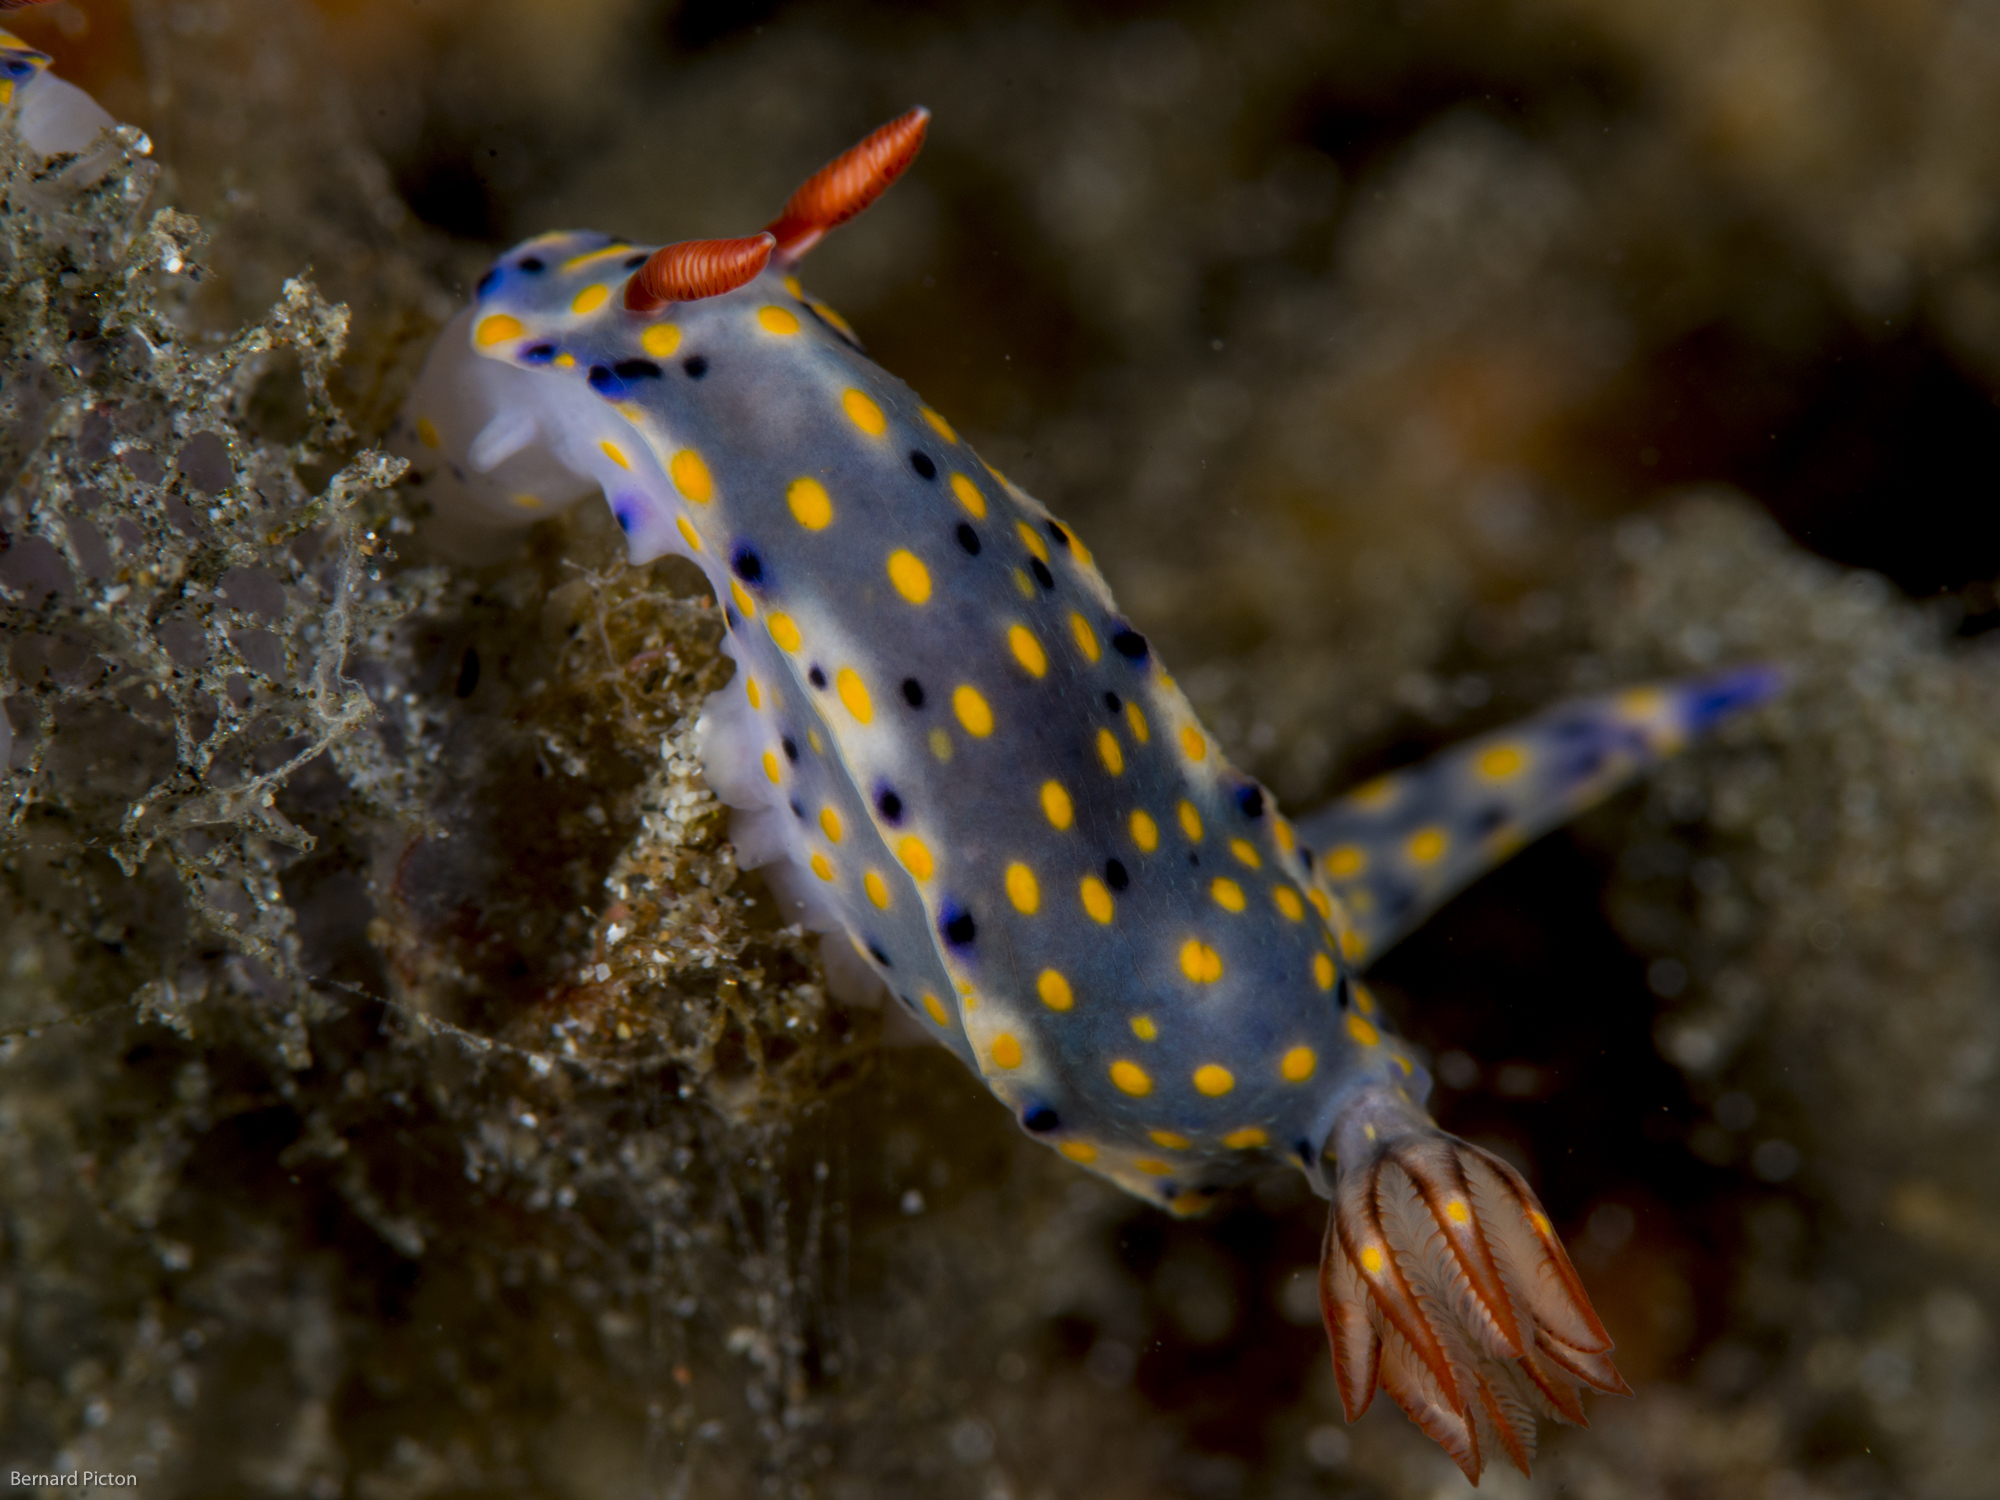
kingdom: Animalia
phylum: Mollusca
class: Gastropoda
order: Nudibranchia
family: Chromodorididae
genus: Hypselodoris
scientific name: Hypselodoris confetti
